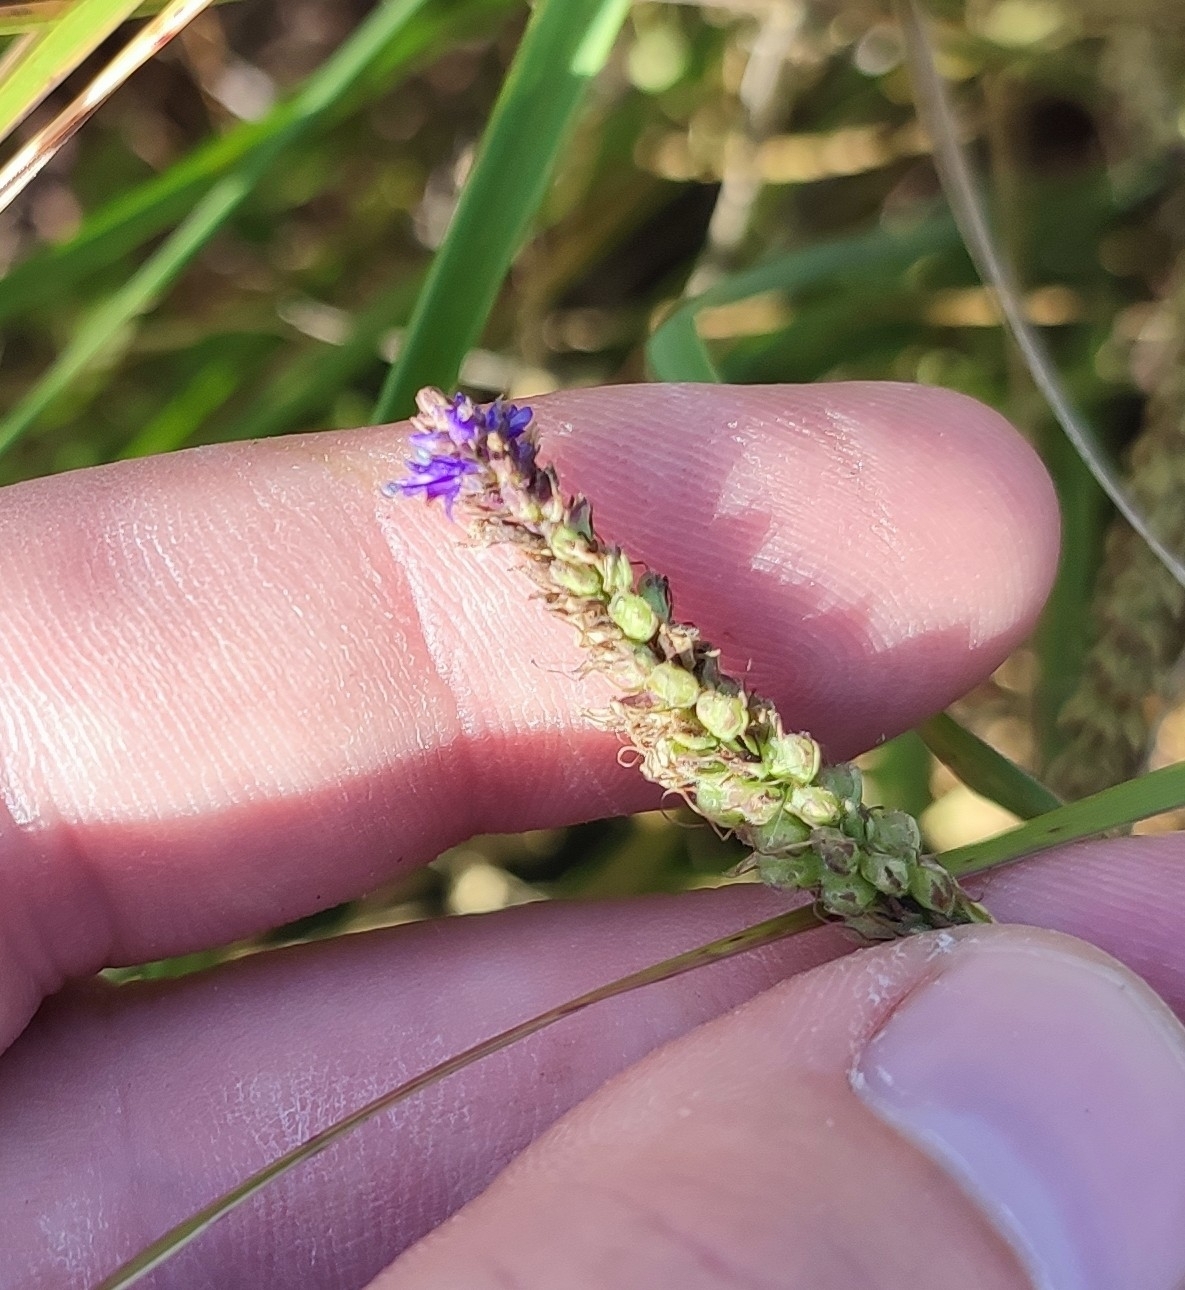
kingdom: Plantae
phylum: Tracheophyta
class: Magnoliopsida
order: Lamiales
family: Plantaginaceae
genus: Veronica
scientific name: Veronica spicata
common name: Spiked speedwell
